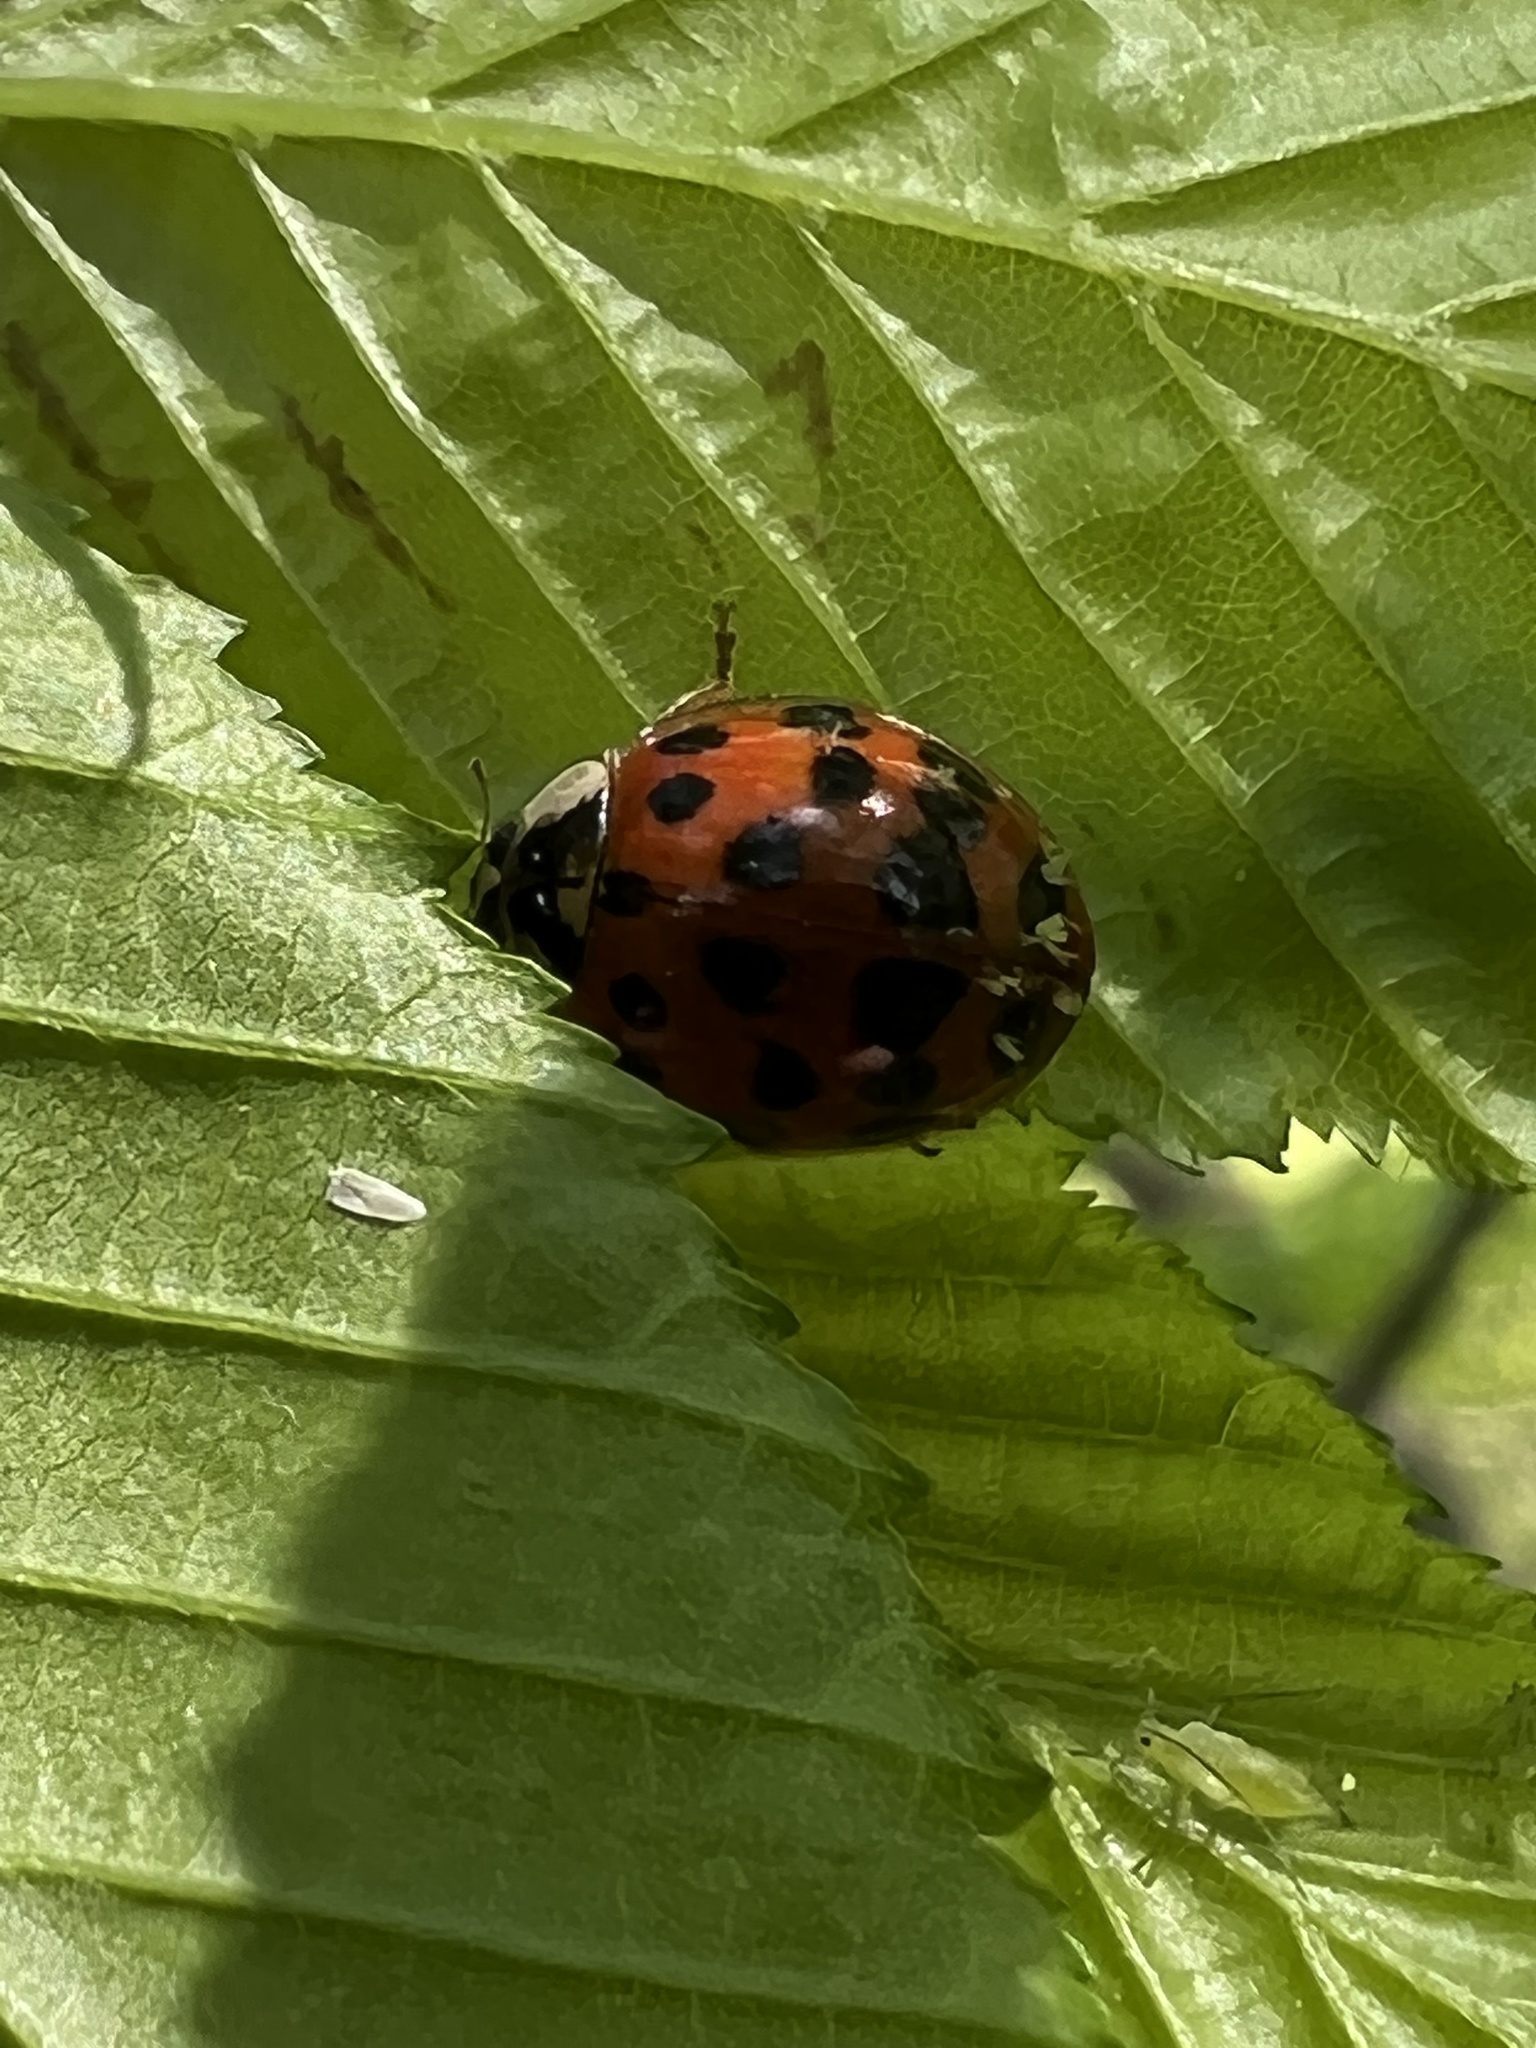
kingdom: Animalia
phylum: Arthropoda
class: Insecta
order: Coleoptera
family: Coccinellidae
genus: Harmonia
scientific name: Harmonia axyridis
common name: Harlequin ladybird
